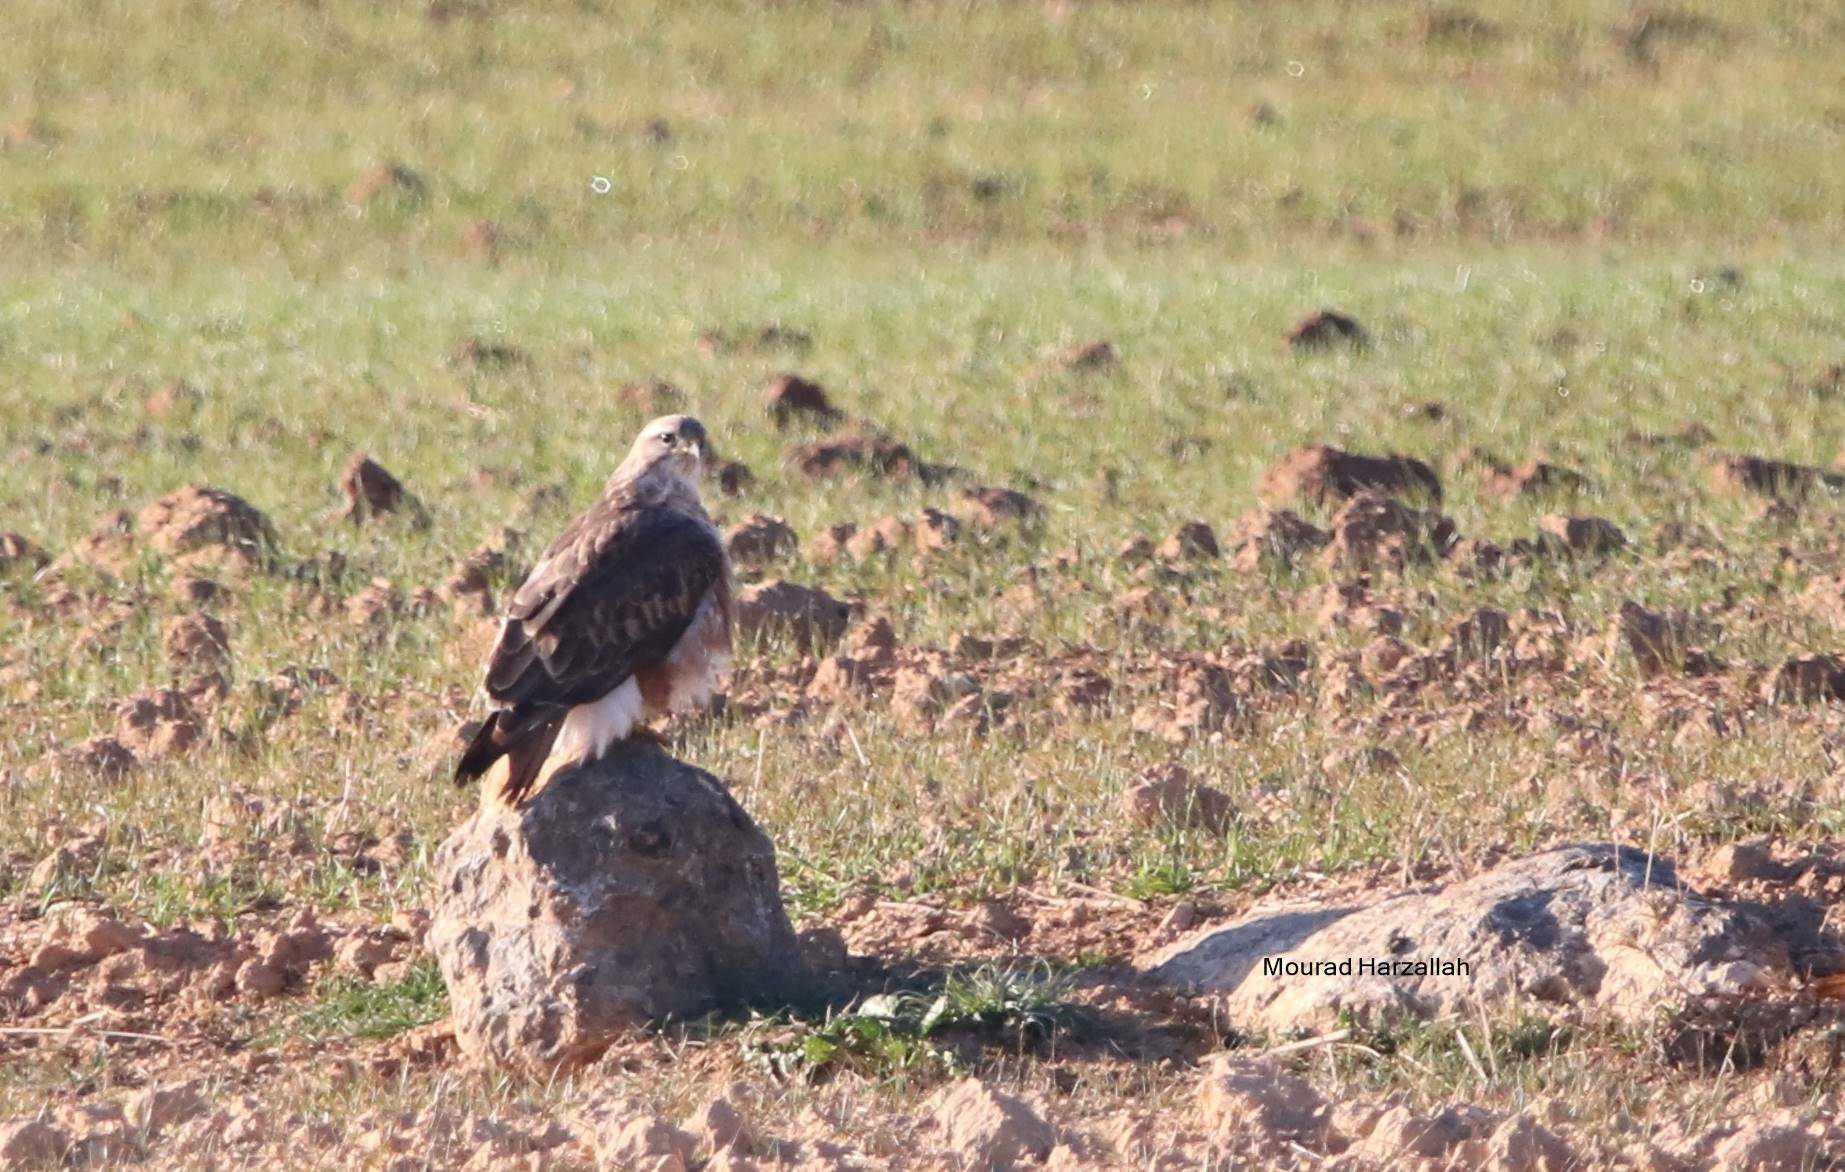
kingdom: Animalia
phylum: Chordata
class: Aves
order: Accipitriformes
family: Accipitridae
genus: Buteo
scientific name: Buteo rufinus
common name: Long-legged buzzard
